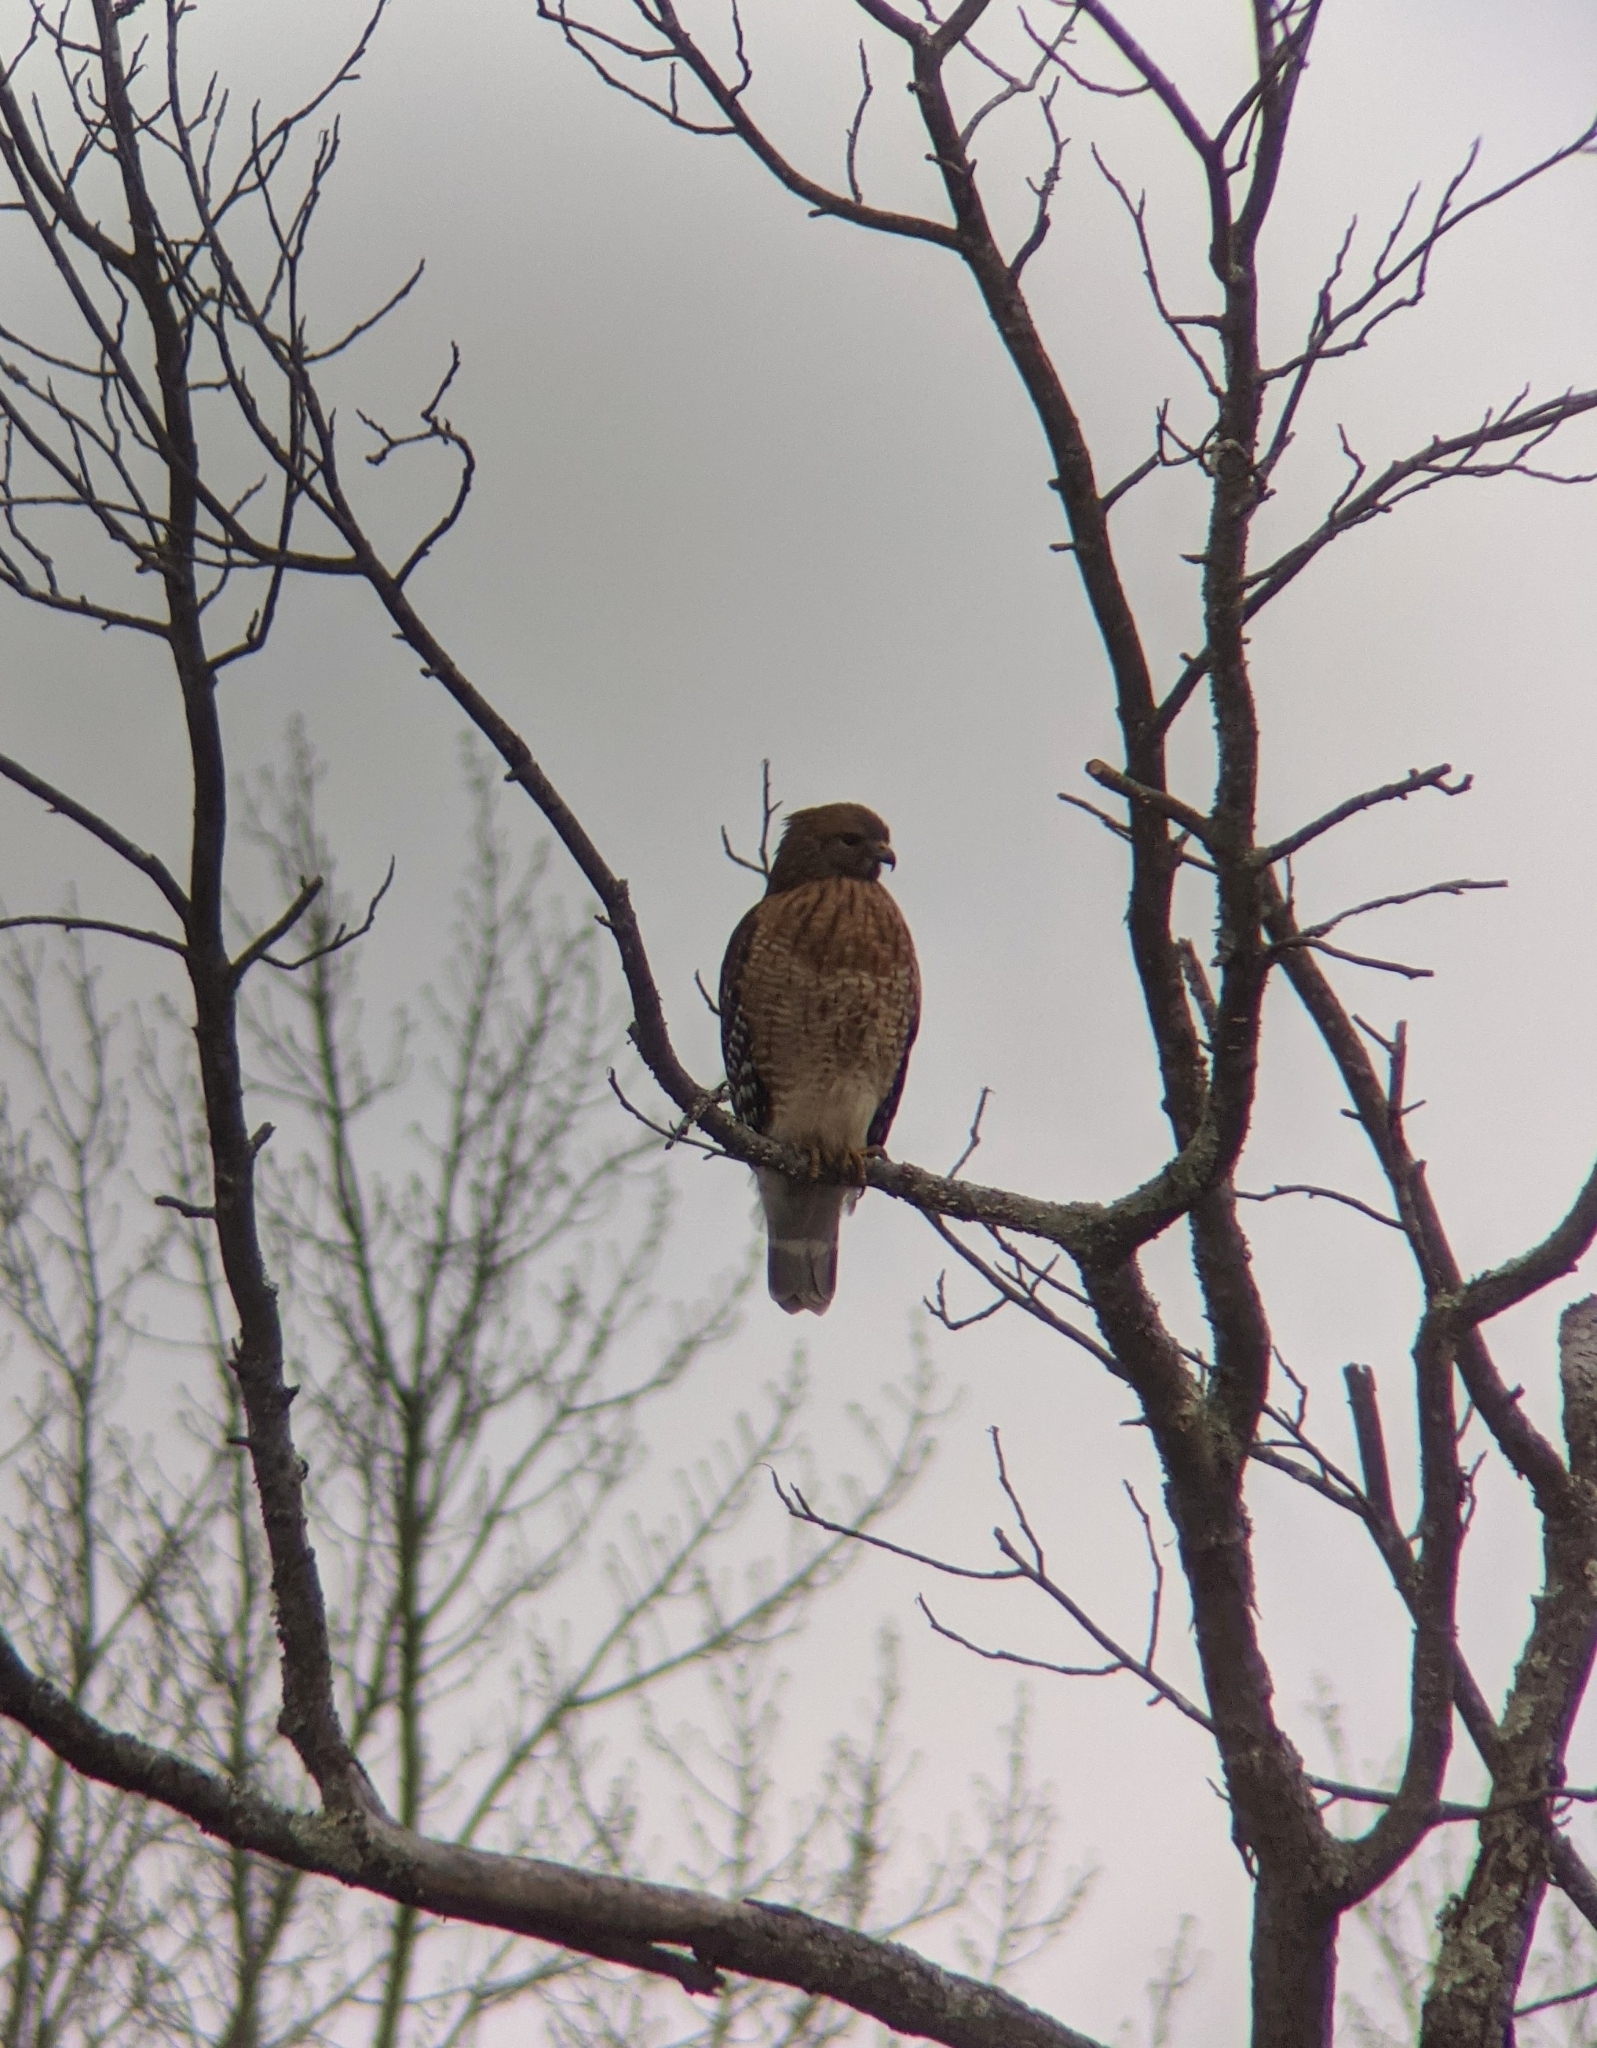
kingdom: Animalia
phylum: Chordata
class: Aves
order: Accipitriformes
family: Accipitridae
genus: Buteo
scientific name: Buteo lineatus
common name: Red-shouldered hawk
